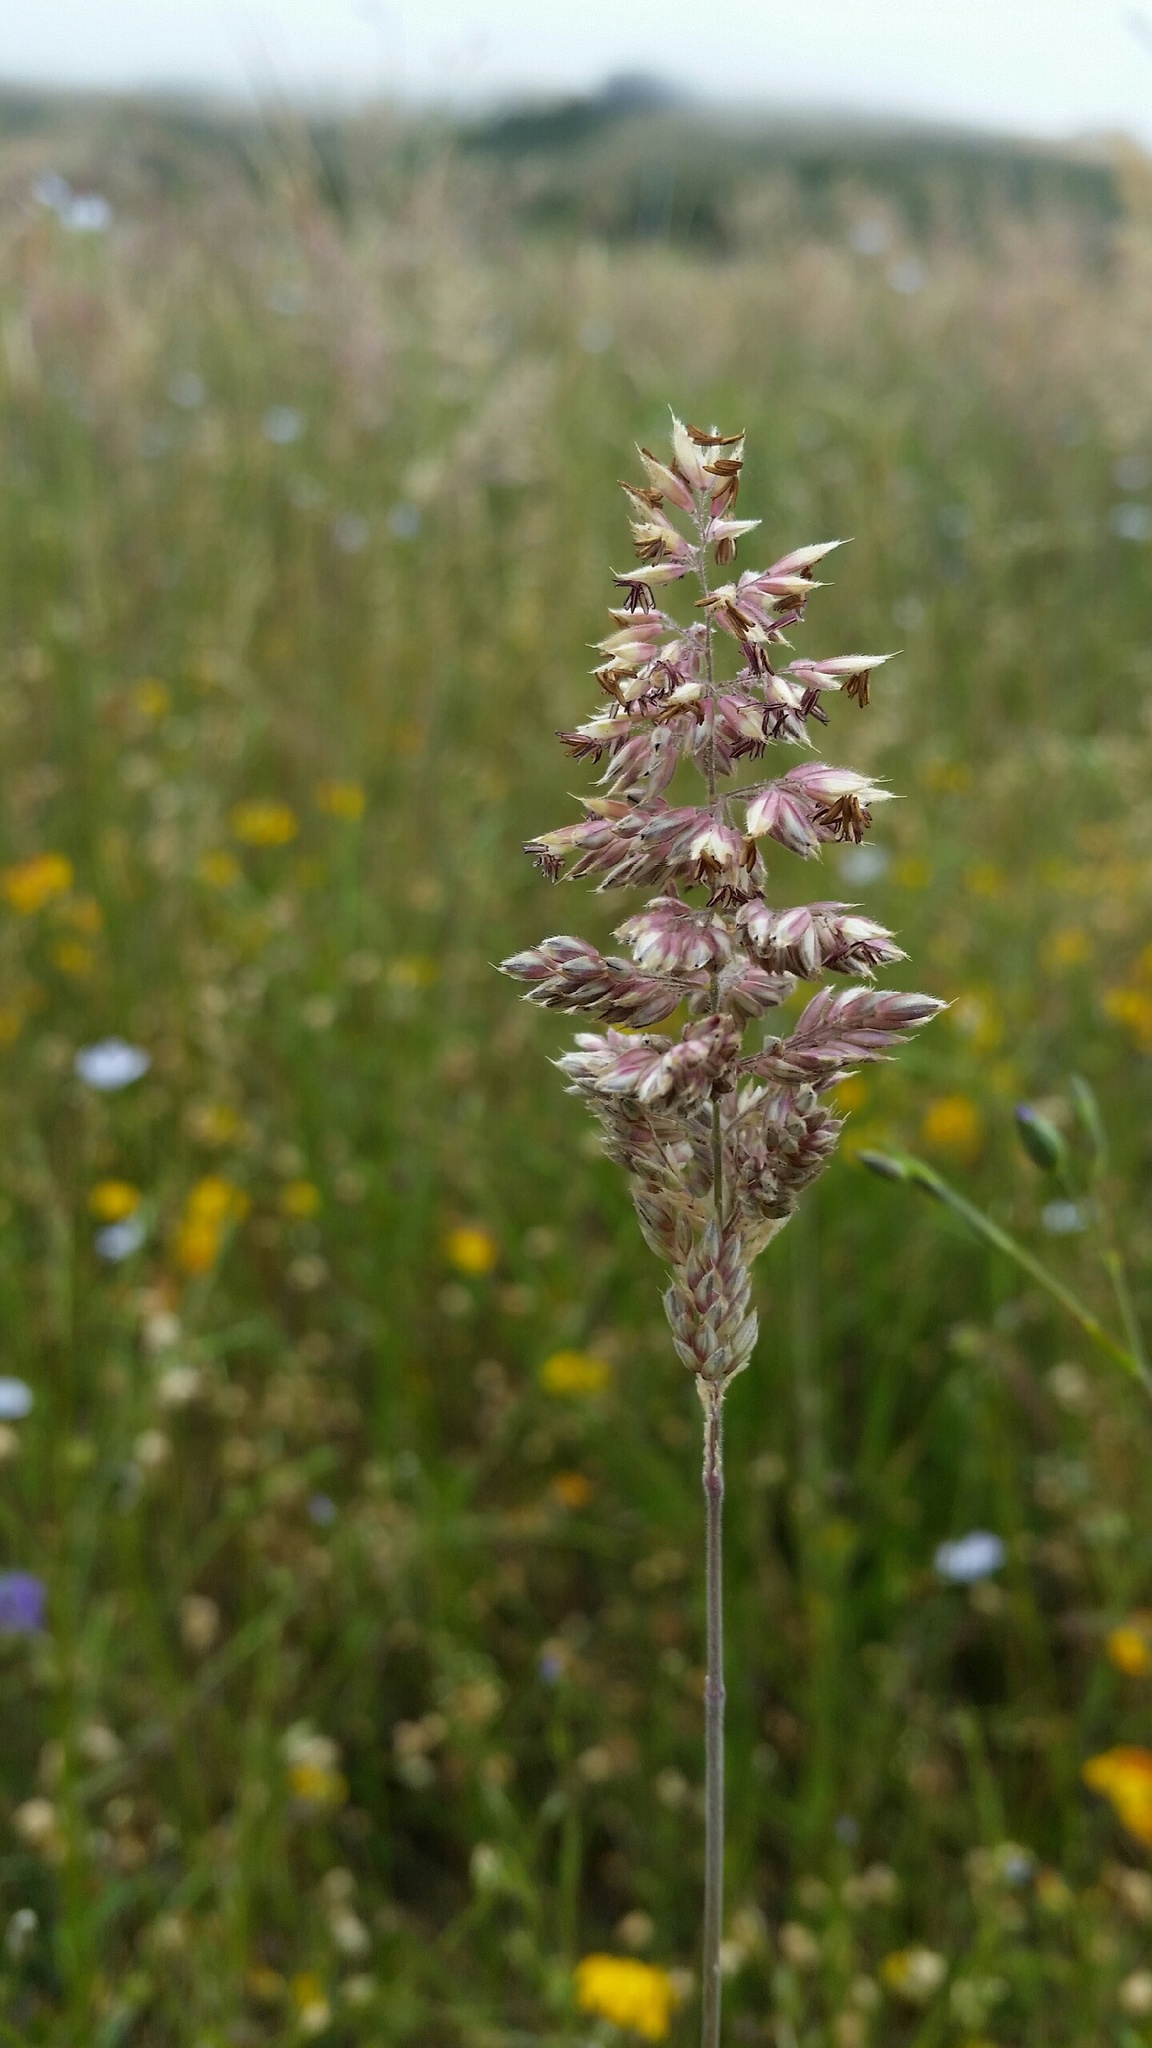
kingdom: Plantae
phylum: Tracheophyta
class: Liliopsida
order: Poales
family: Poaceae
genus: Holcus
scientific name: Holcus lanatus
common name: Yorkshire-fog
